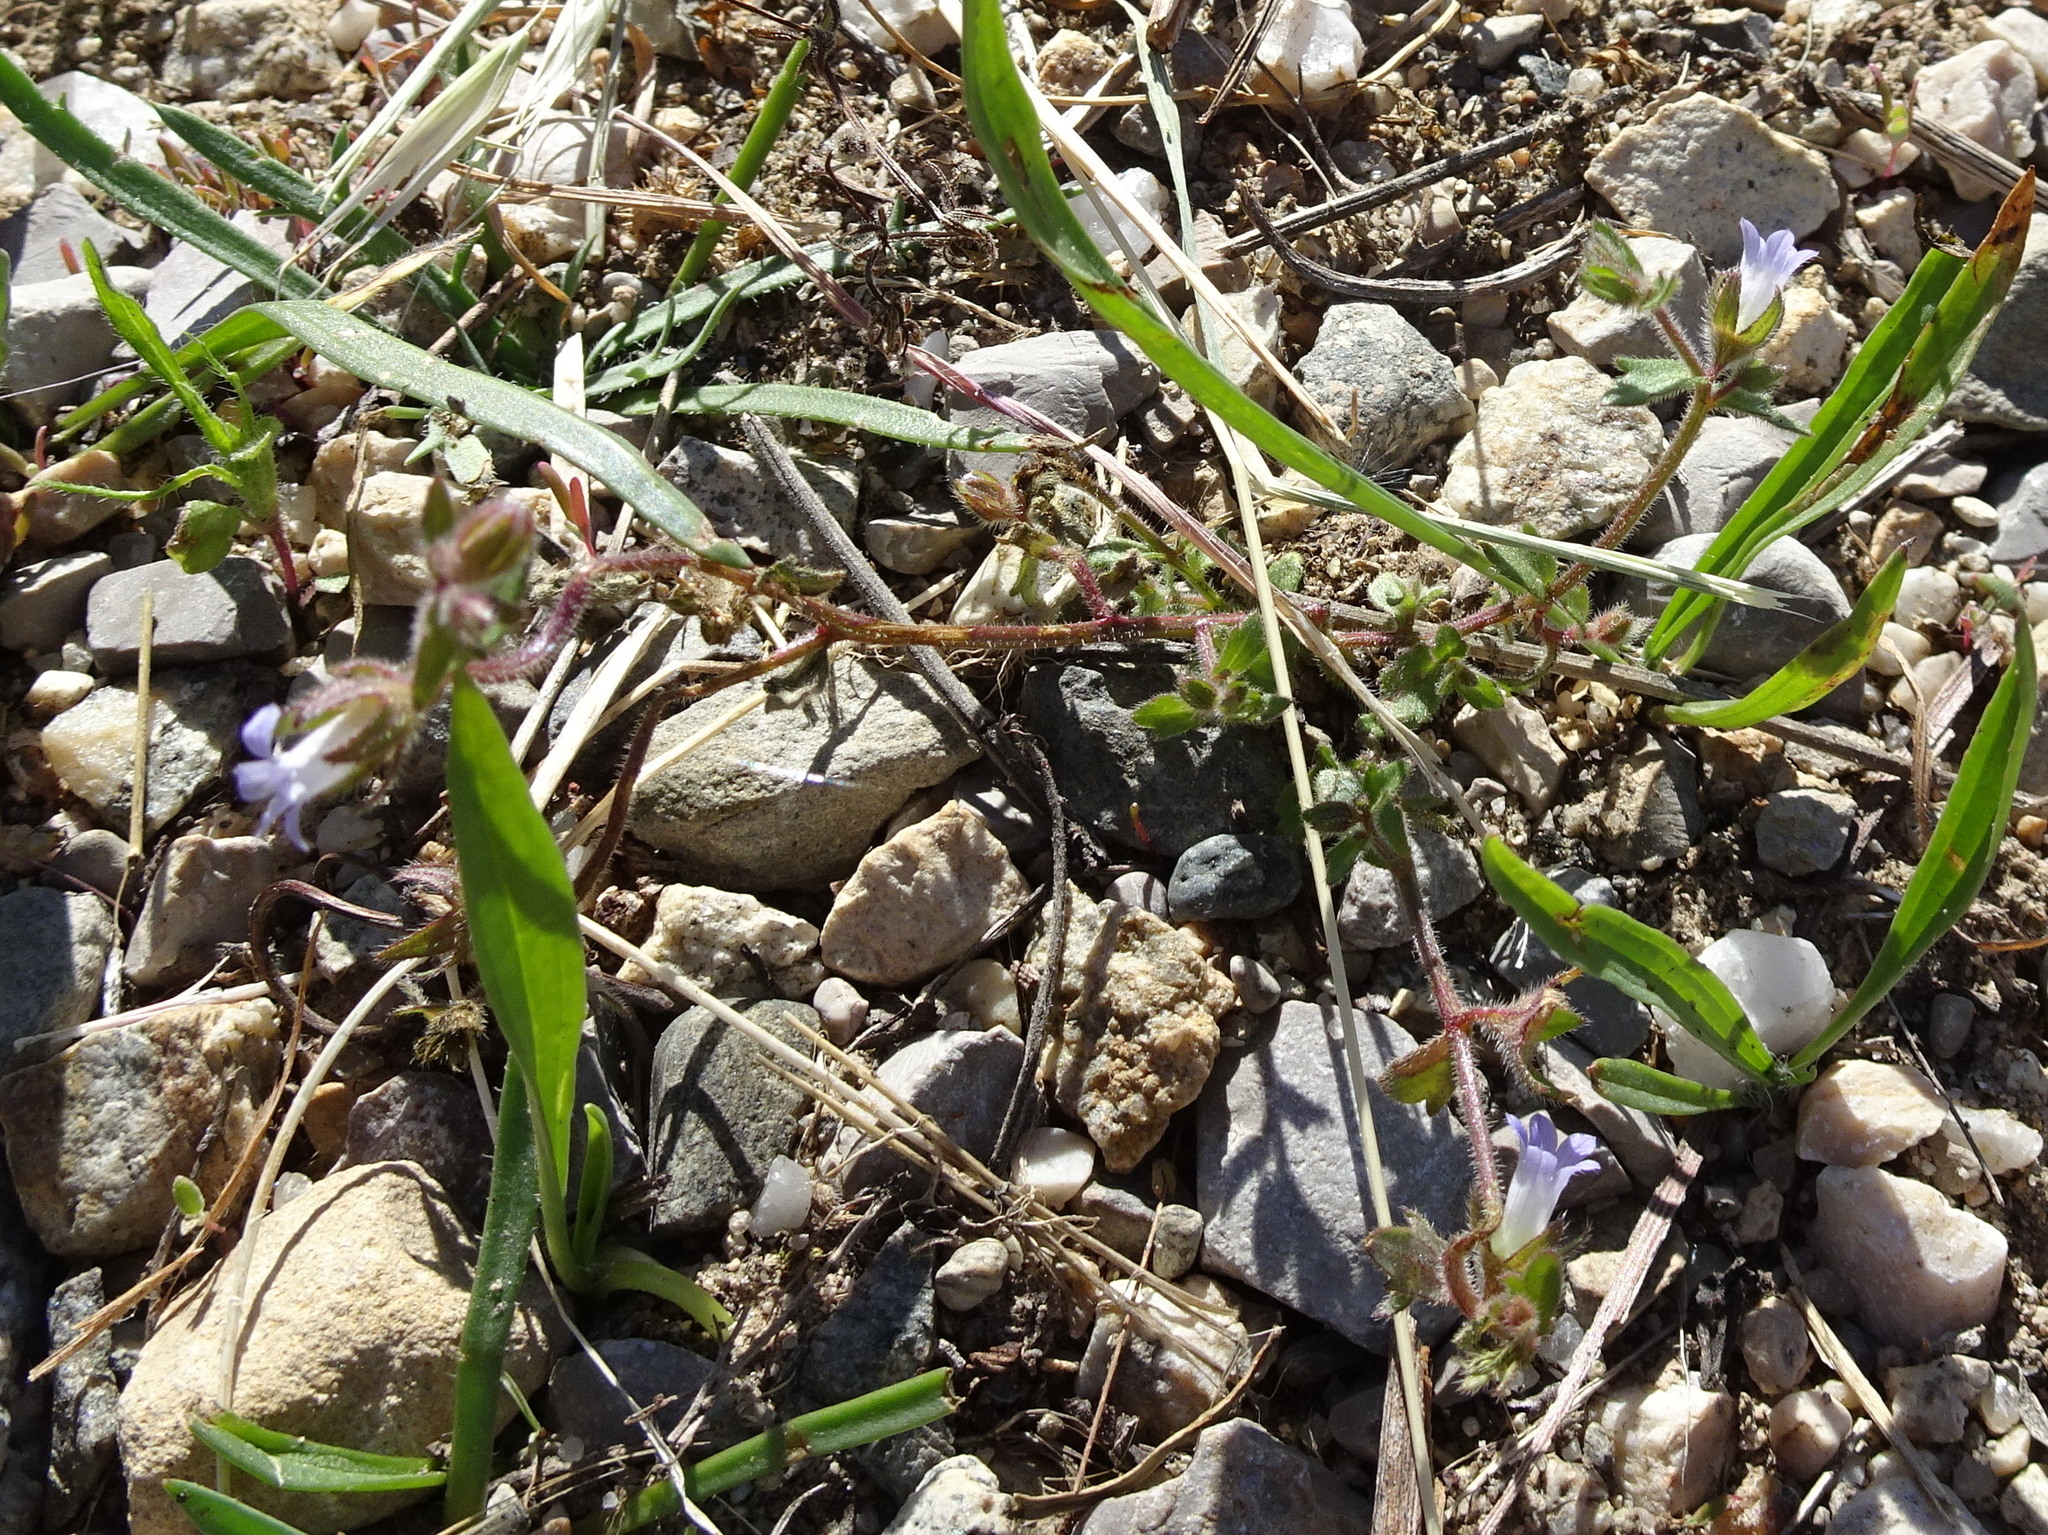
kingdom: Plantae
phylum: Tracheophyta
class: Magnoliopsida
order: Asterales
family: Campanulaceae
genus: Campanula
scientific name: Campanula erinus
